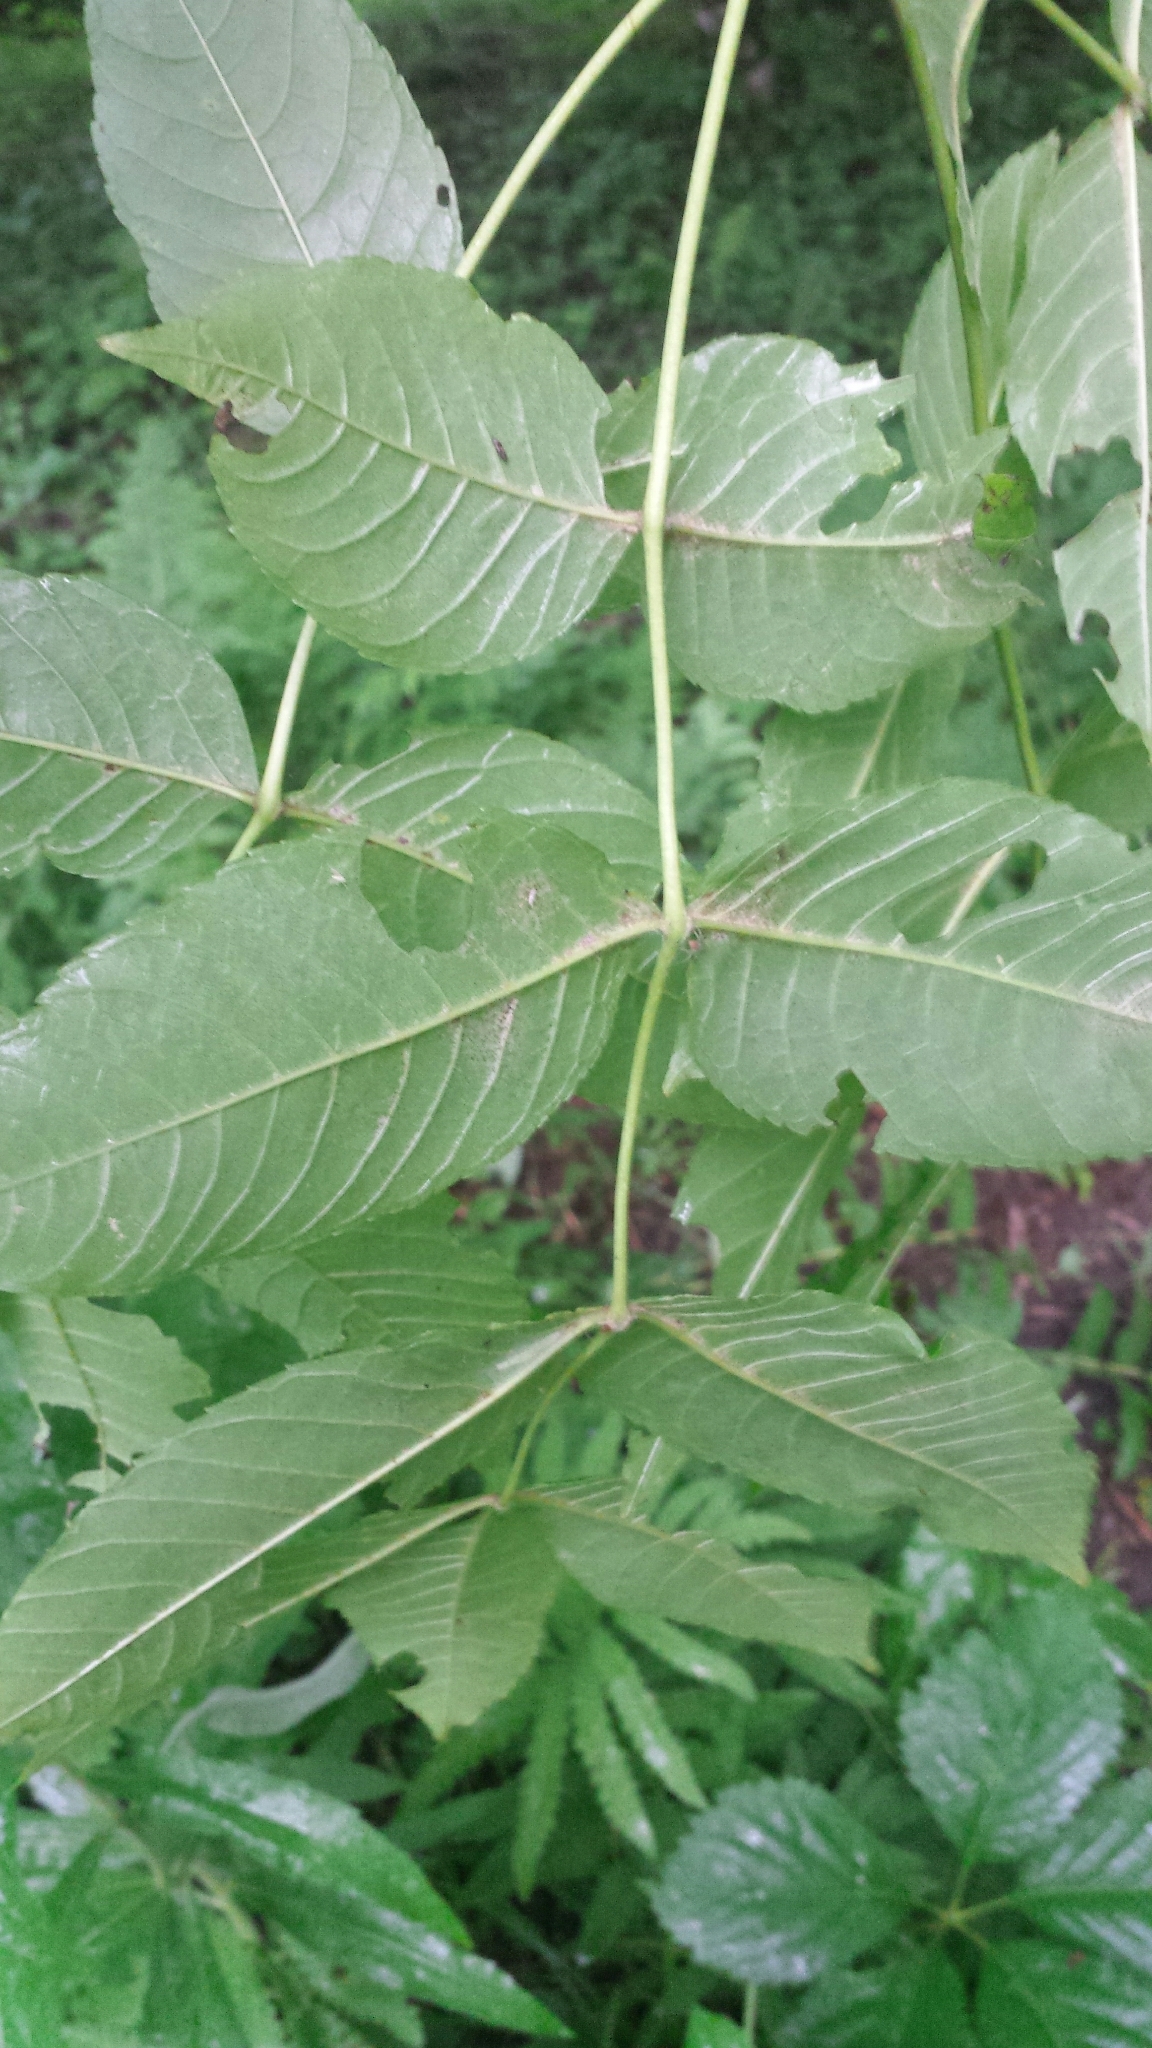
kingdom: Plantae
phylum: Tracheophyta
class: Magnoliopsida
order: Lamiales
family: Oleaceae
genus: Fraxinus
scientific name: Fraxinus nigra
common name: Black ash
